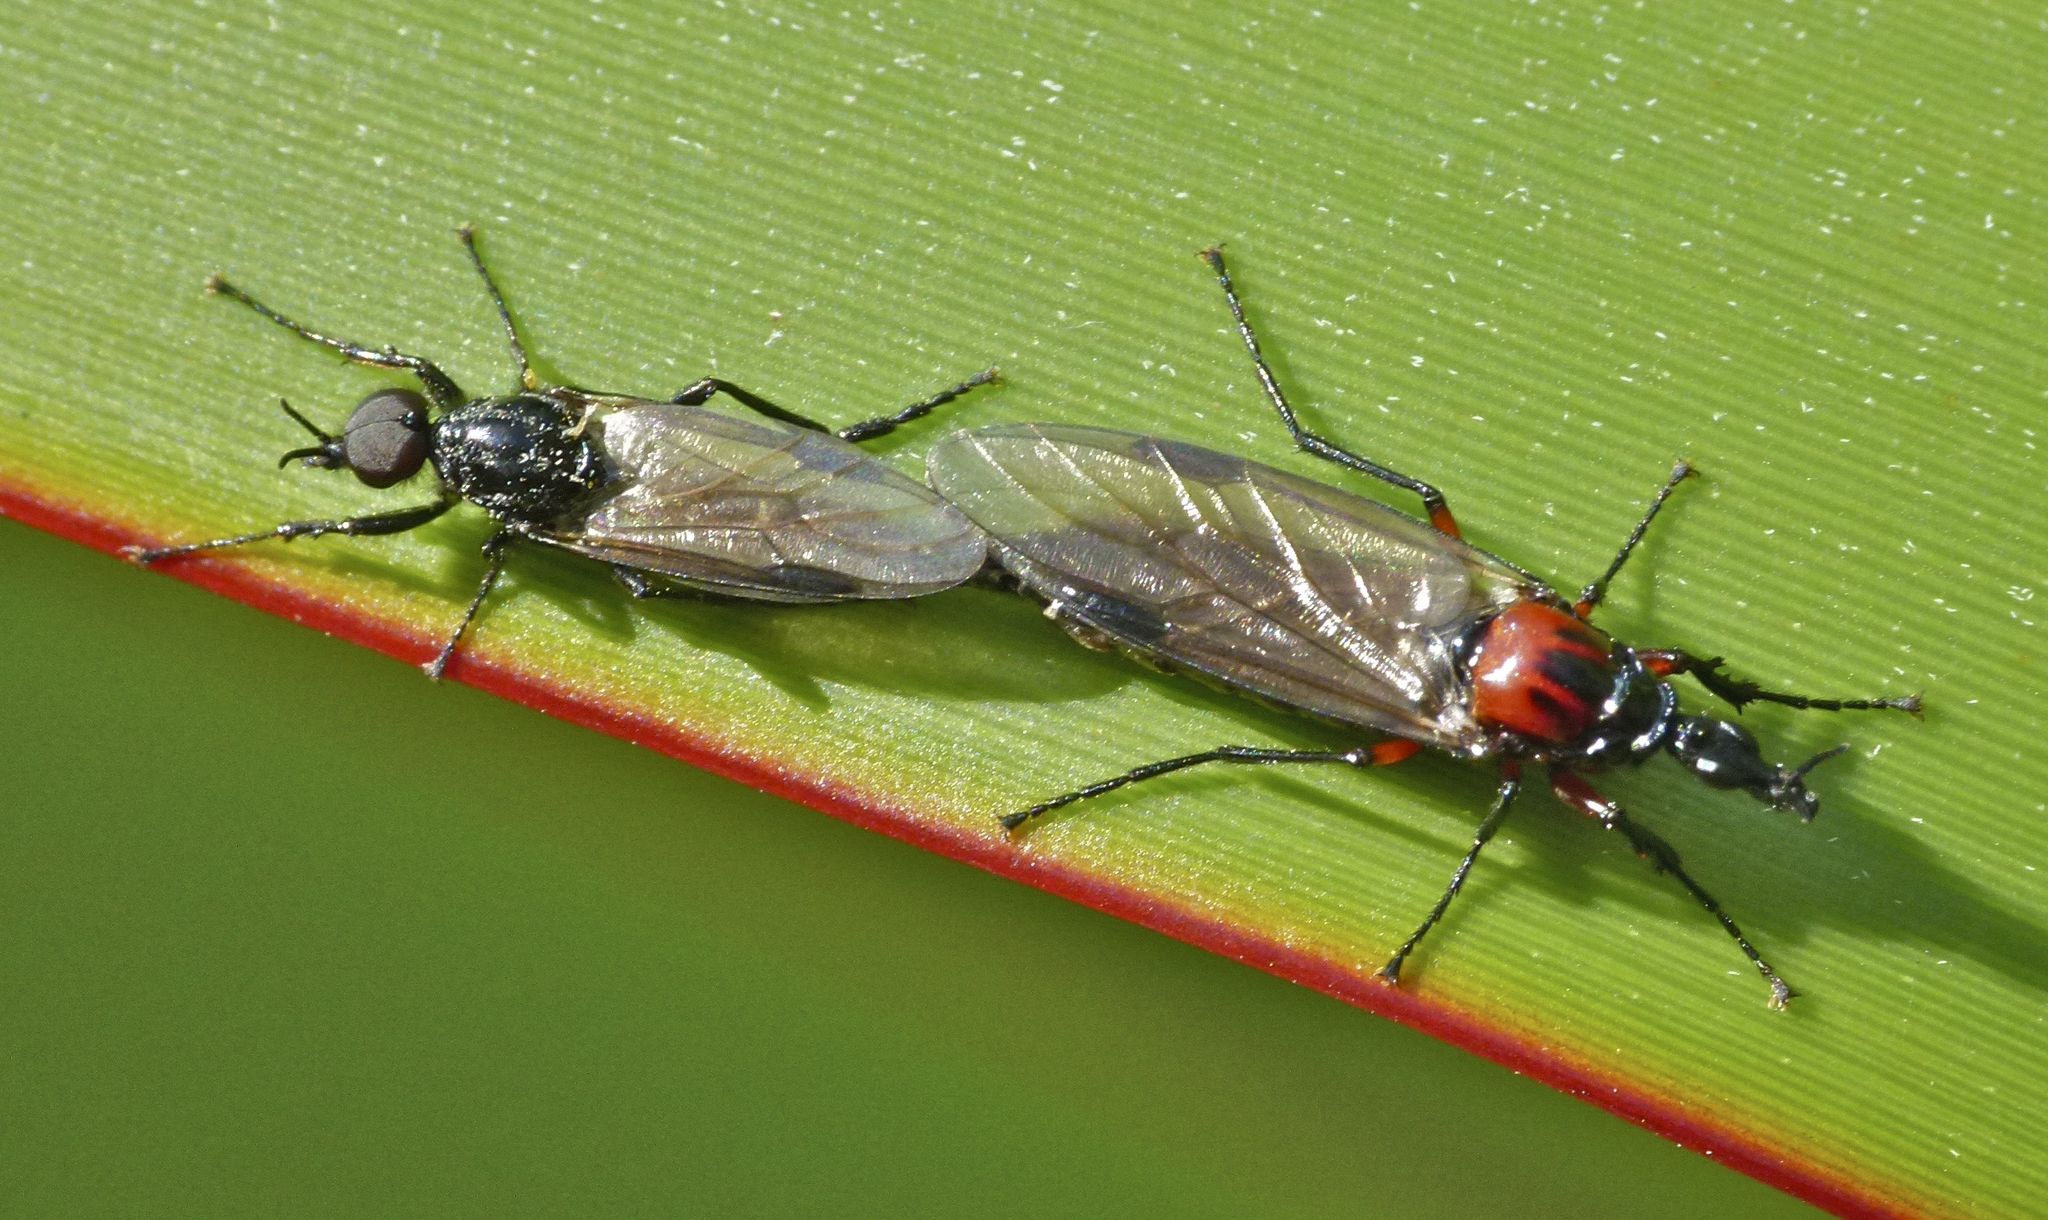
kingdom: Animalia
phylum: Arthropoda
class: Insecta
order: Diptera
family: Bibionidae
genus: Dilophus
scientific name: Dilophus nigrostigma
